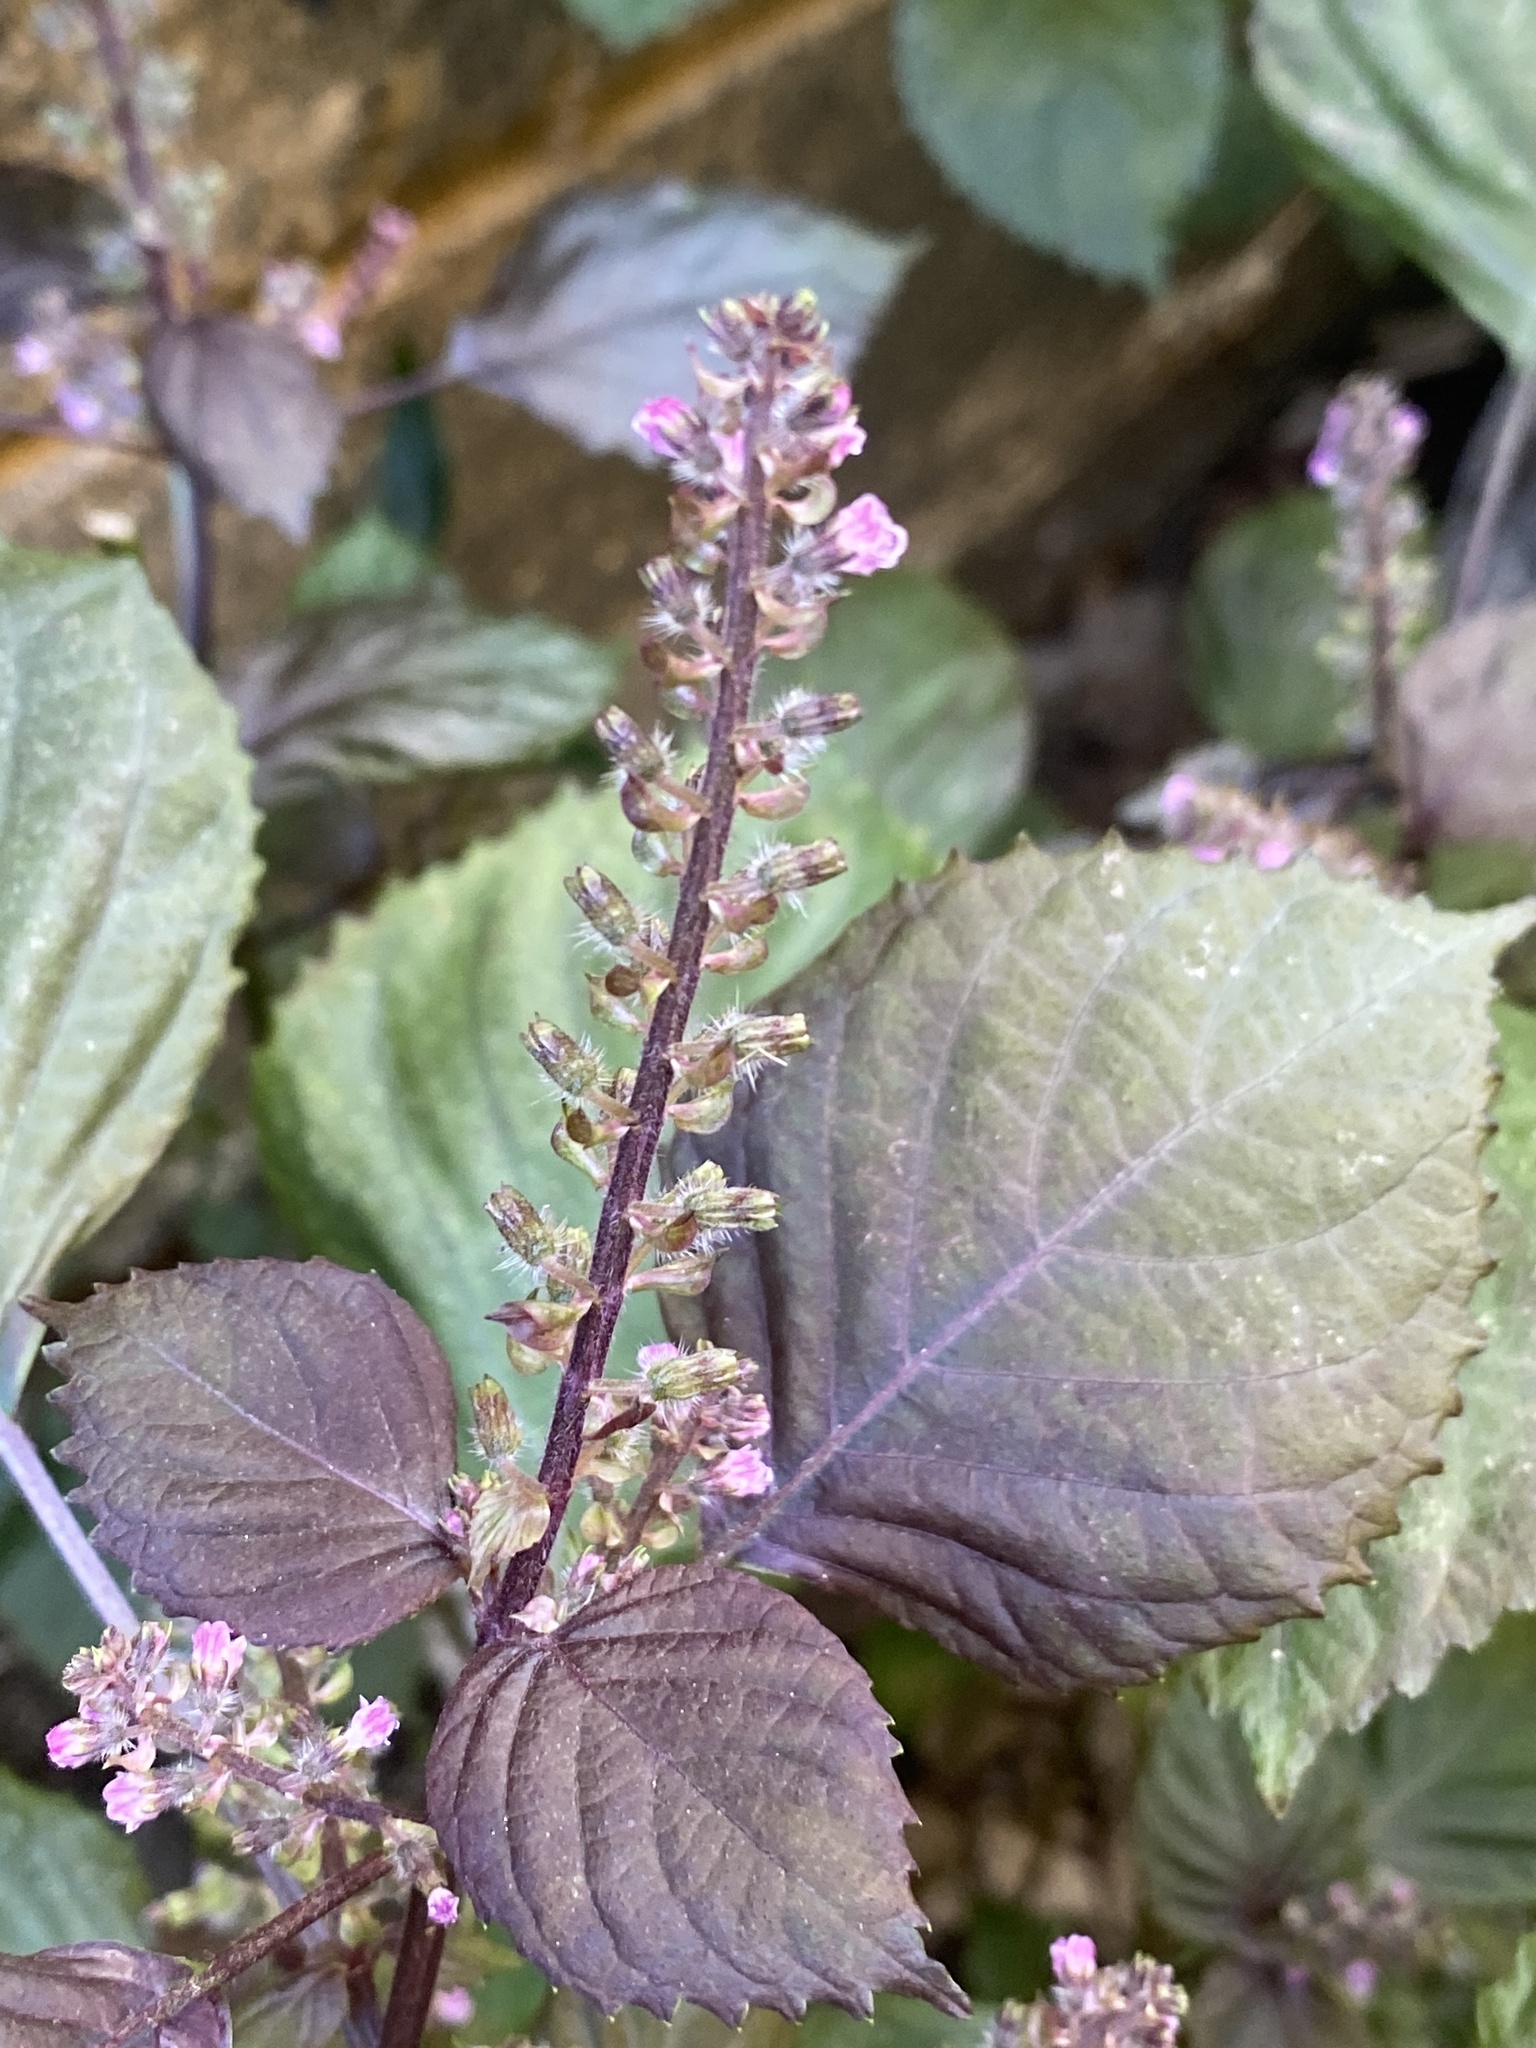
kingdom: Plantae
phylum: Tracheophyta
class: Magnoliopsida
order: Lamiales
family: Lamiaceae
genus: Perilla
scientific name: Perilla frutescens
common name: Perilla
